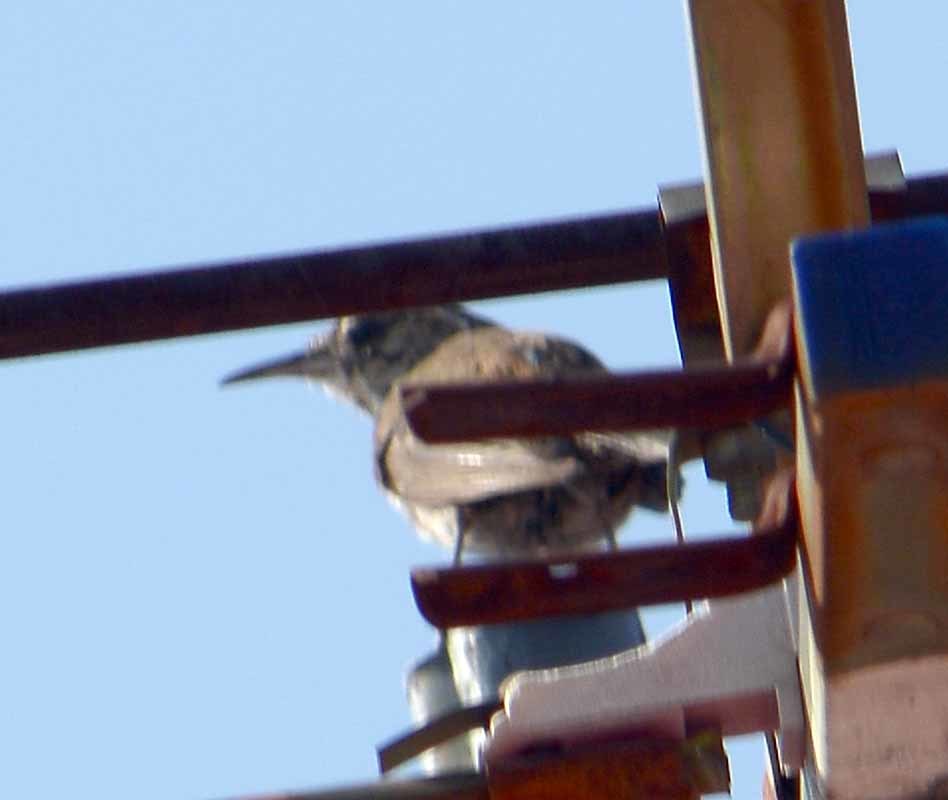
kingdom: Animalia
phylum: Chordata
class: Aves
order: Passeriformes
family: Troglodytidae
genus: Thryomanes
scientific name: Thryomanes bewickii
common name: Bewick's wren
